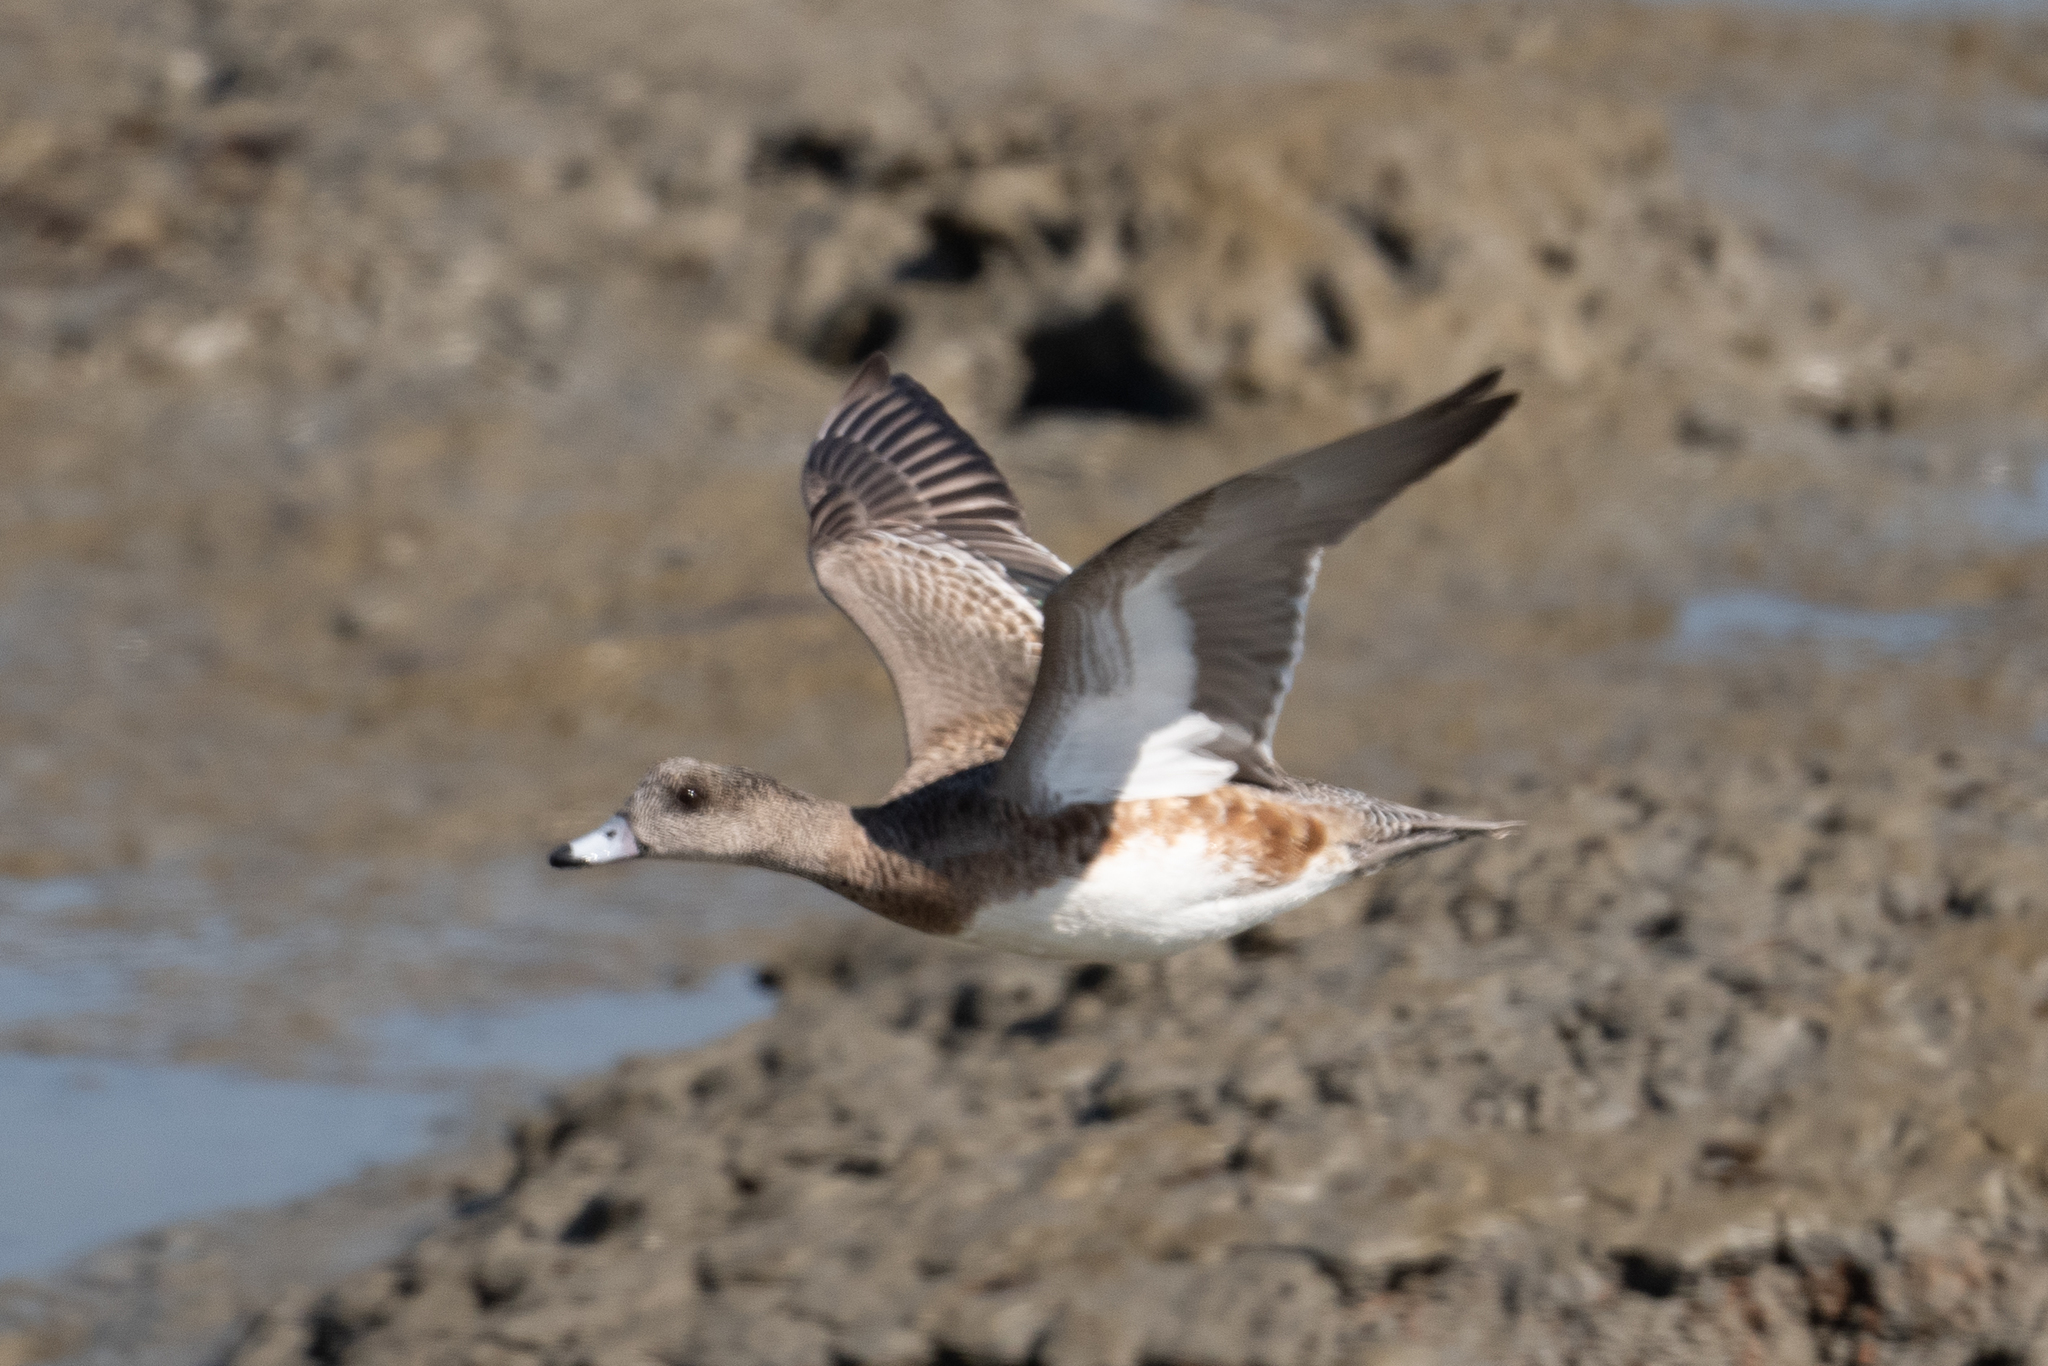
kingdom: Animalia
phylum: Chordata
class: Aves
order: Anseriformes
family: Anatidae
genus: Mareca
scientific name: Mareca americana
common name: American wigeon
